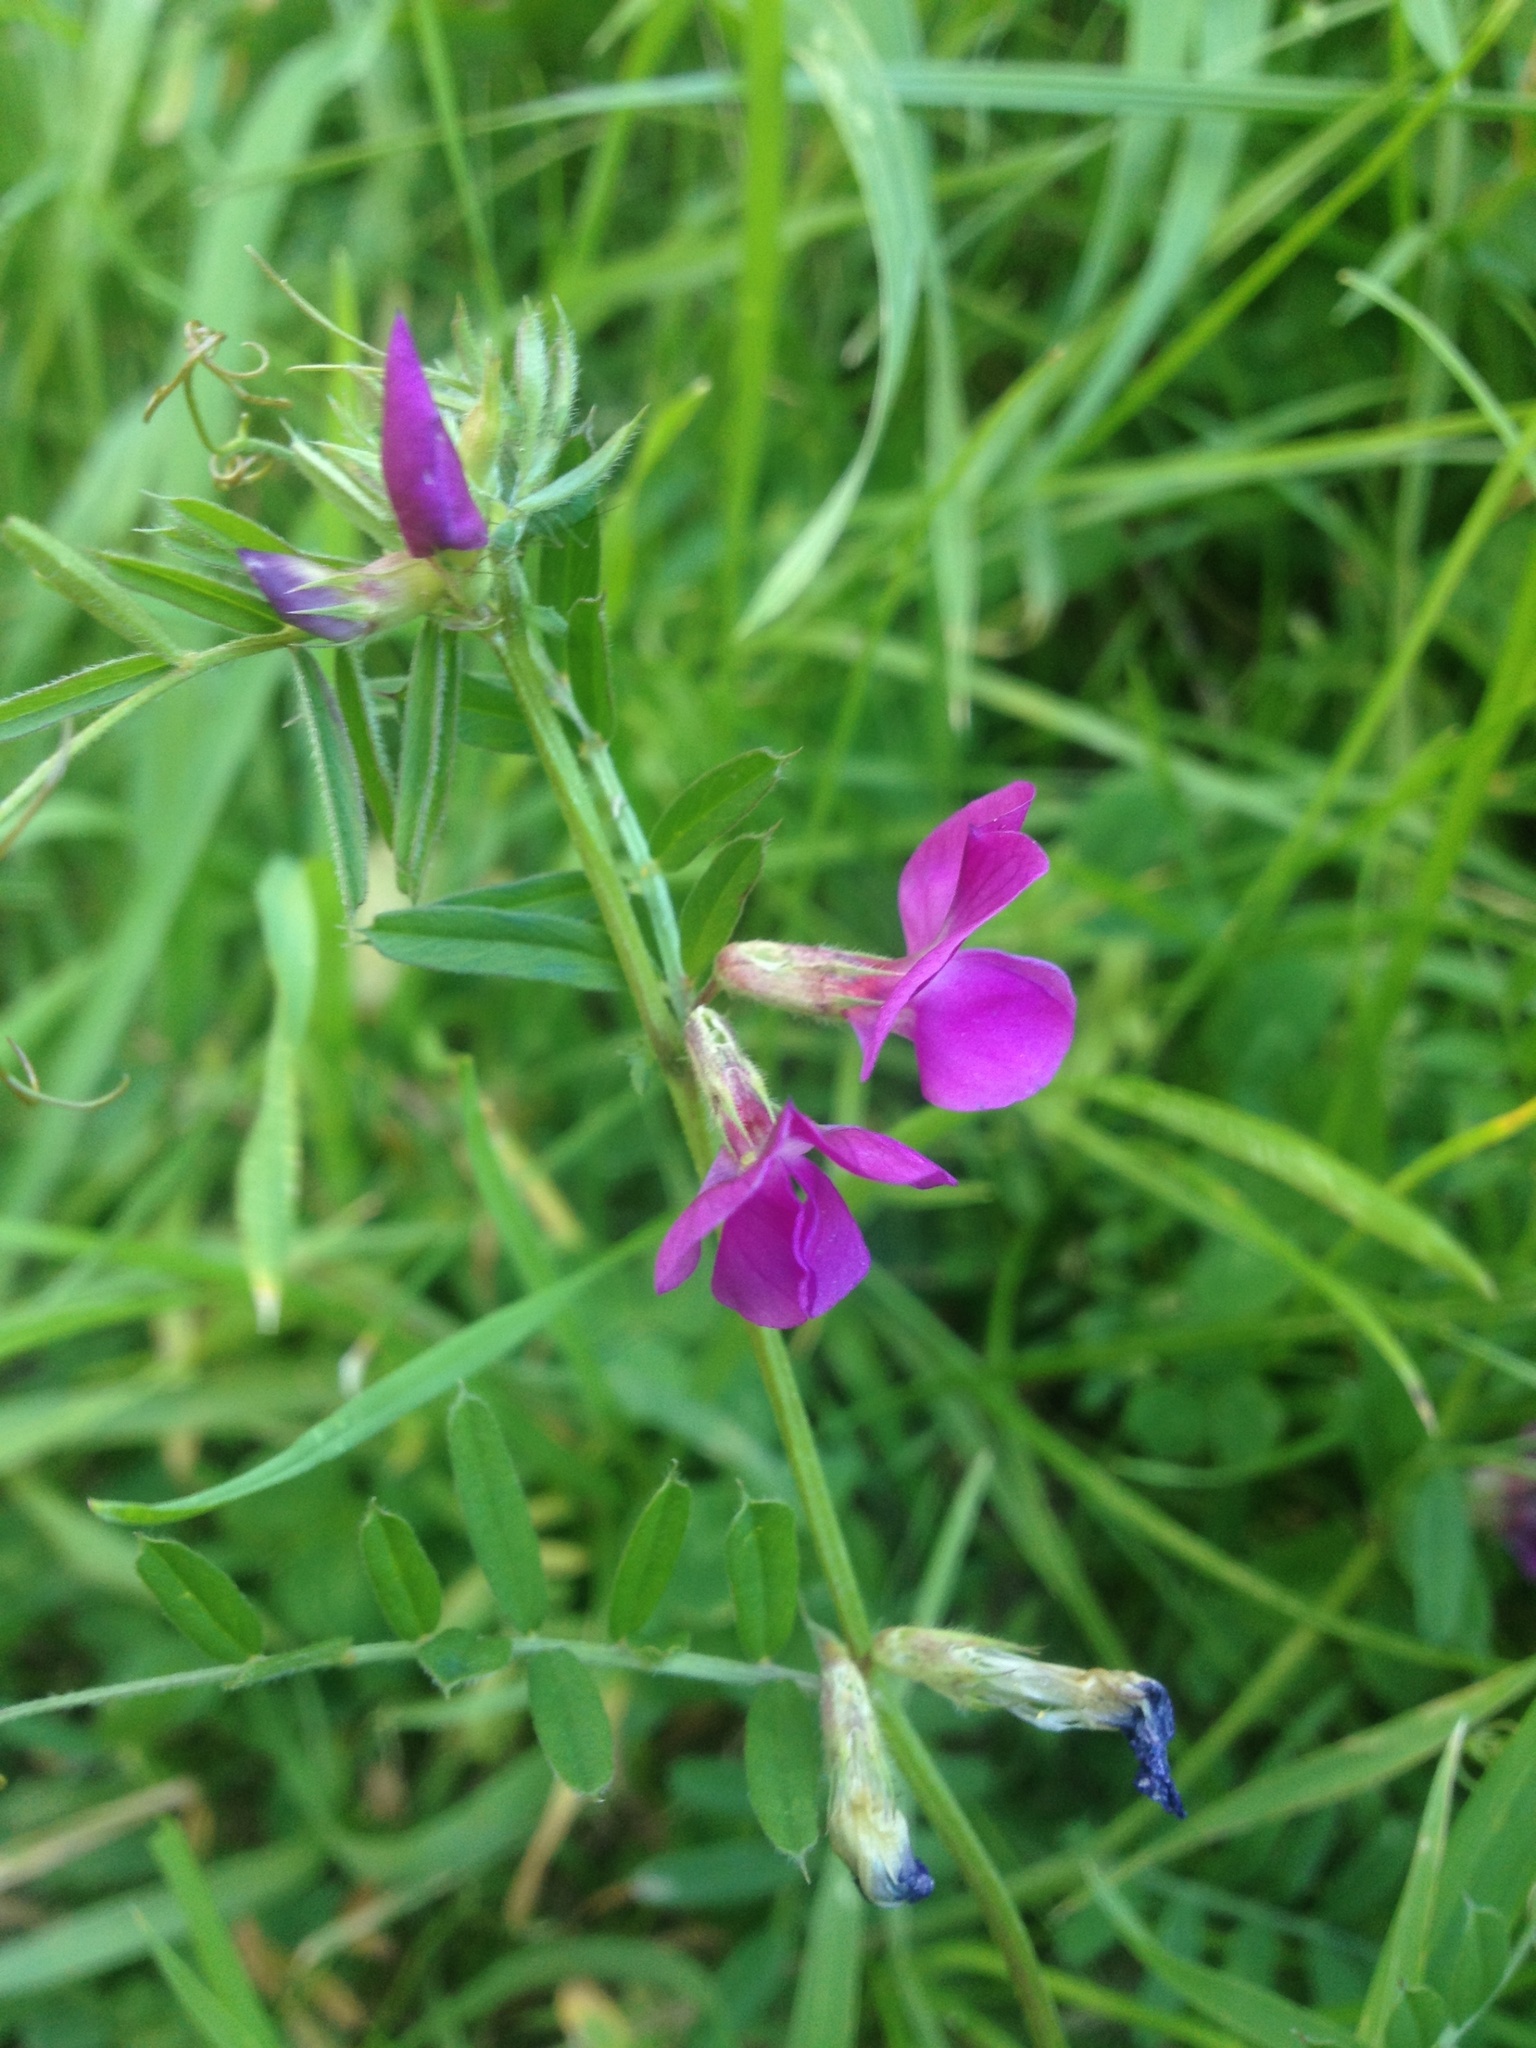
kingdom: Plantae
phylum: Tracheophyta
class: Magnoliopsida
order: Fabales
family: Fabaceae
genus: Vicia
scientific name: Vicia sativa
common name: Garden vetch
